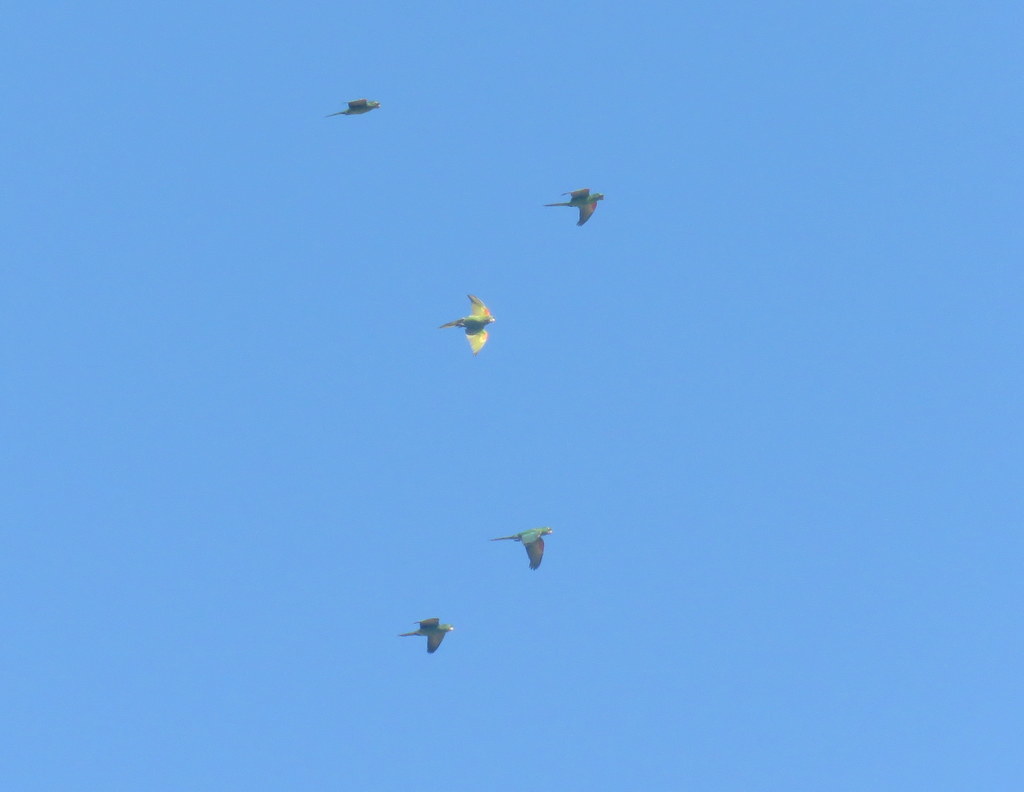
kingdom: Animalia
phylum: Chordata
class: Aves
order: Psittaciformes
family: Psittacidae
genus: Aratinga
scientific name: Aratinga leucophthalma
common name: White-eyed parakeet
